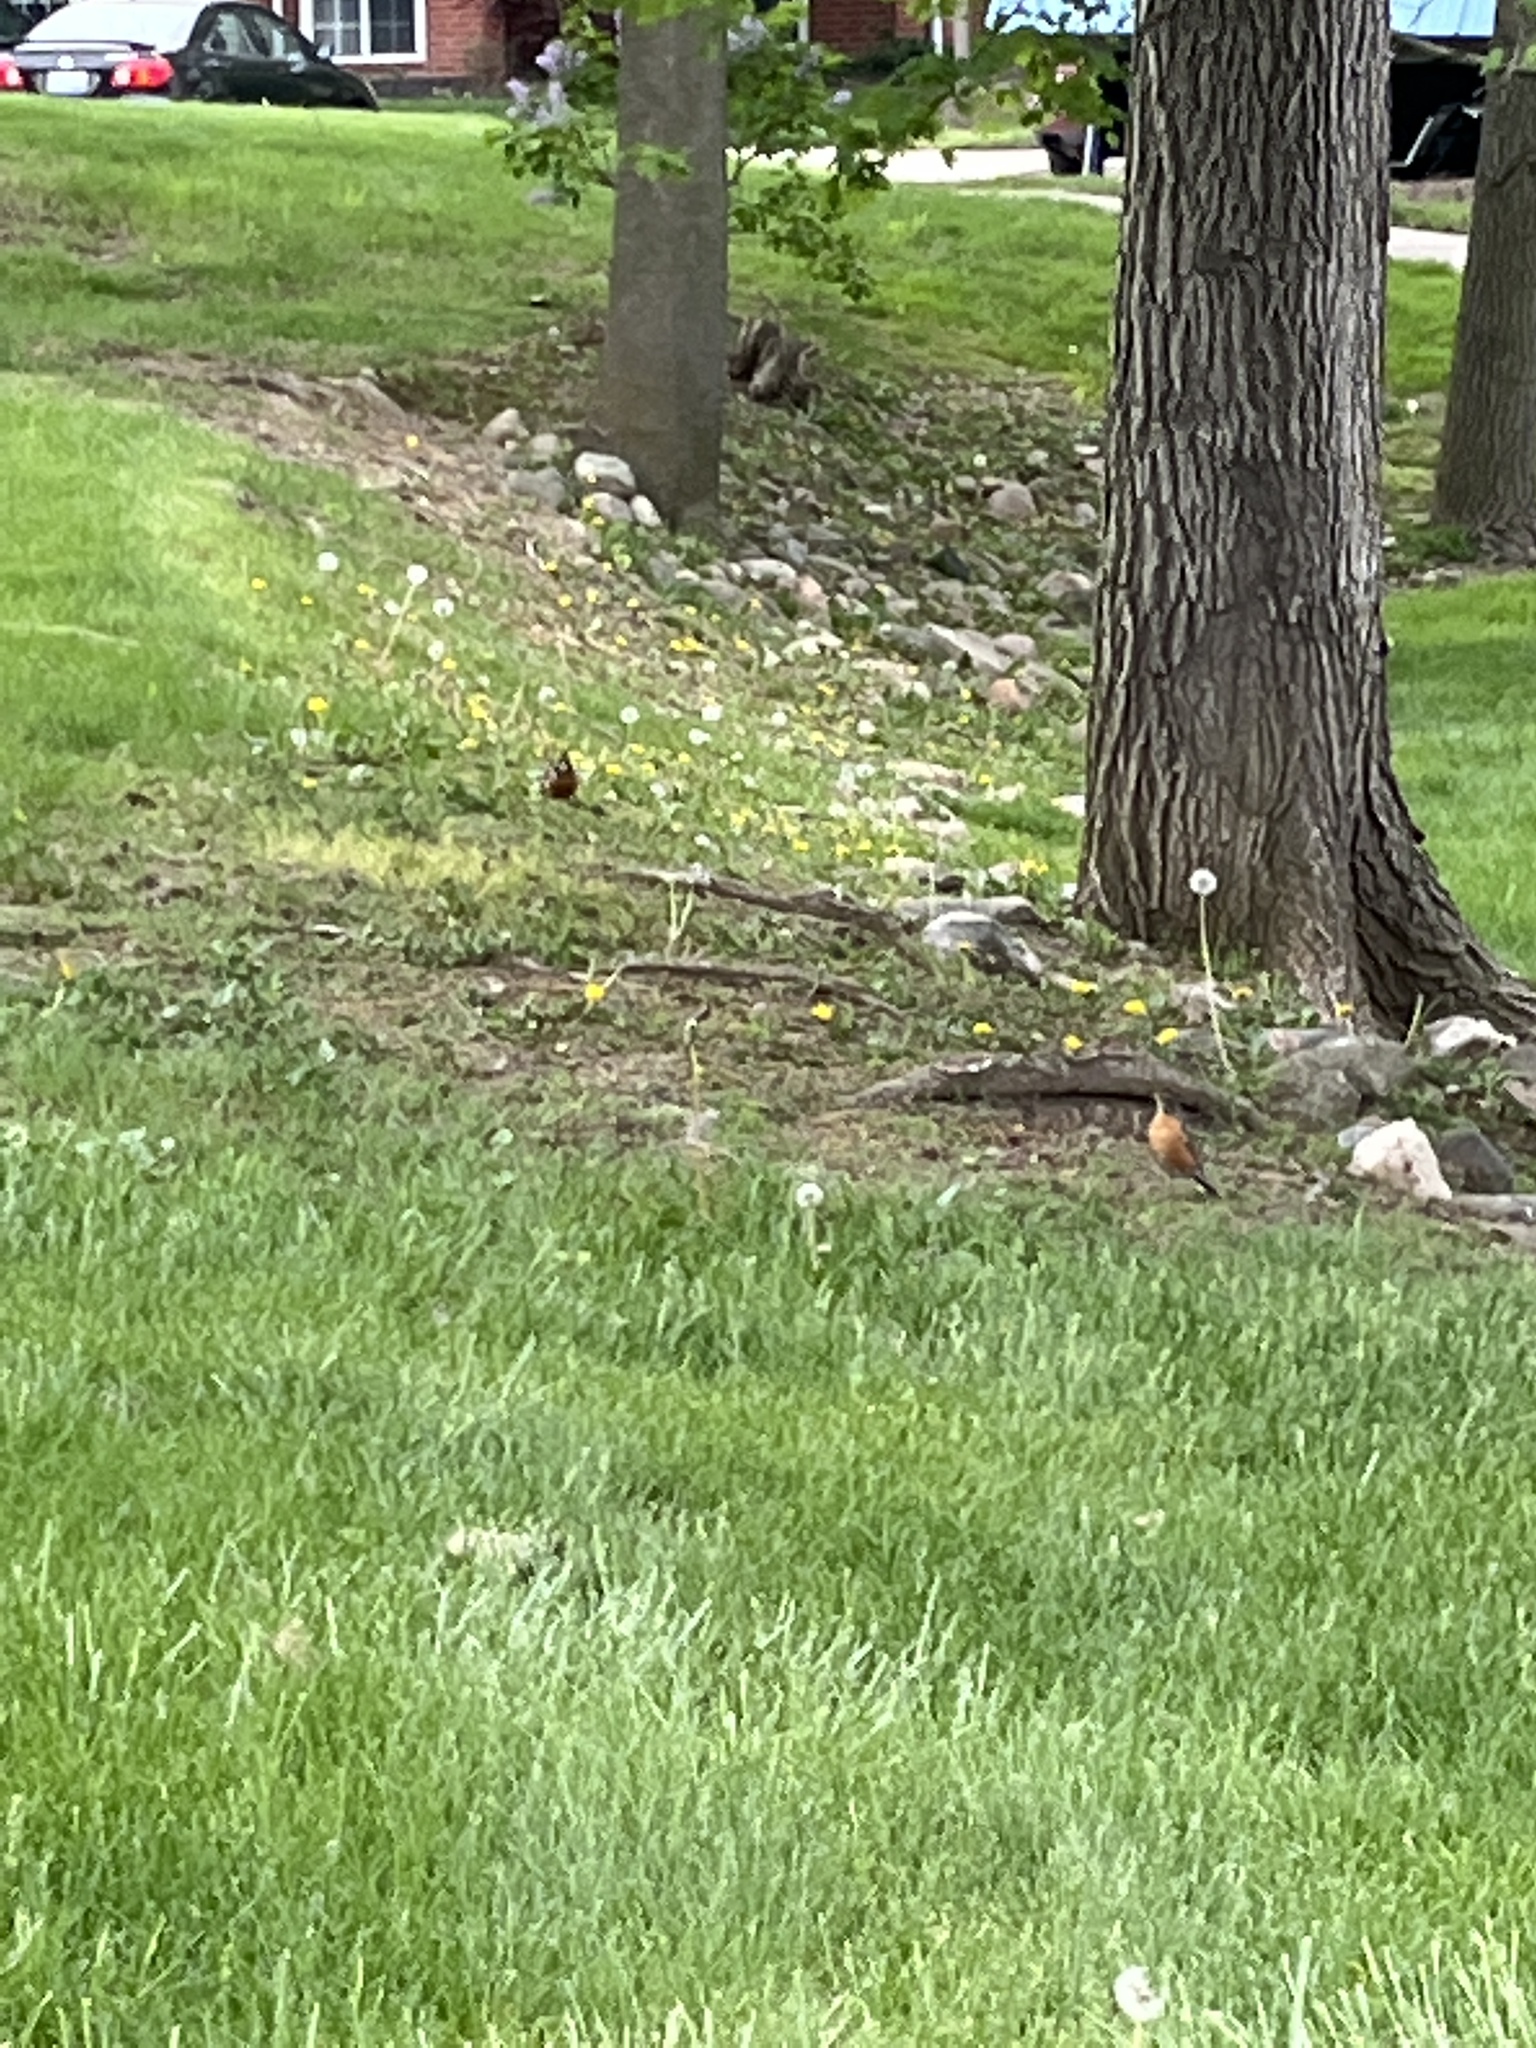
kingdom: Animalia
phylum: Chordata
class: Aves
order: Passeriformes
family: Turdidae
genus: Turdus
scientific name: Turdus migratorius
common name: American robin
